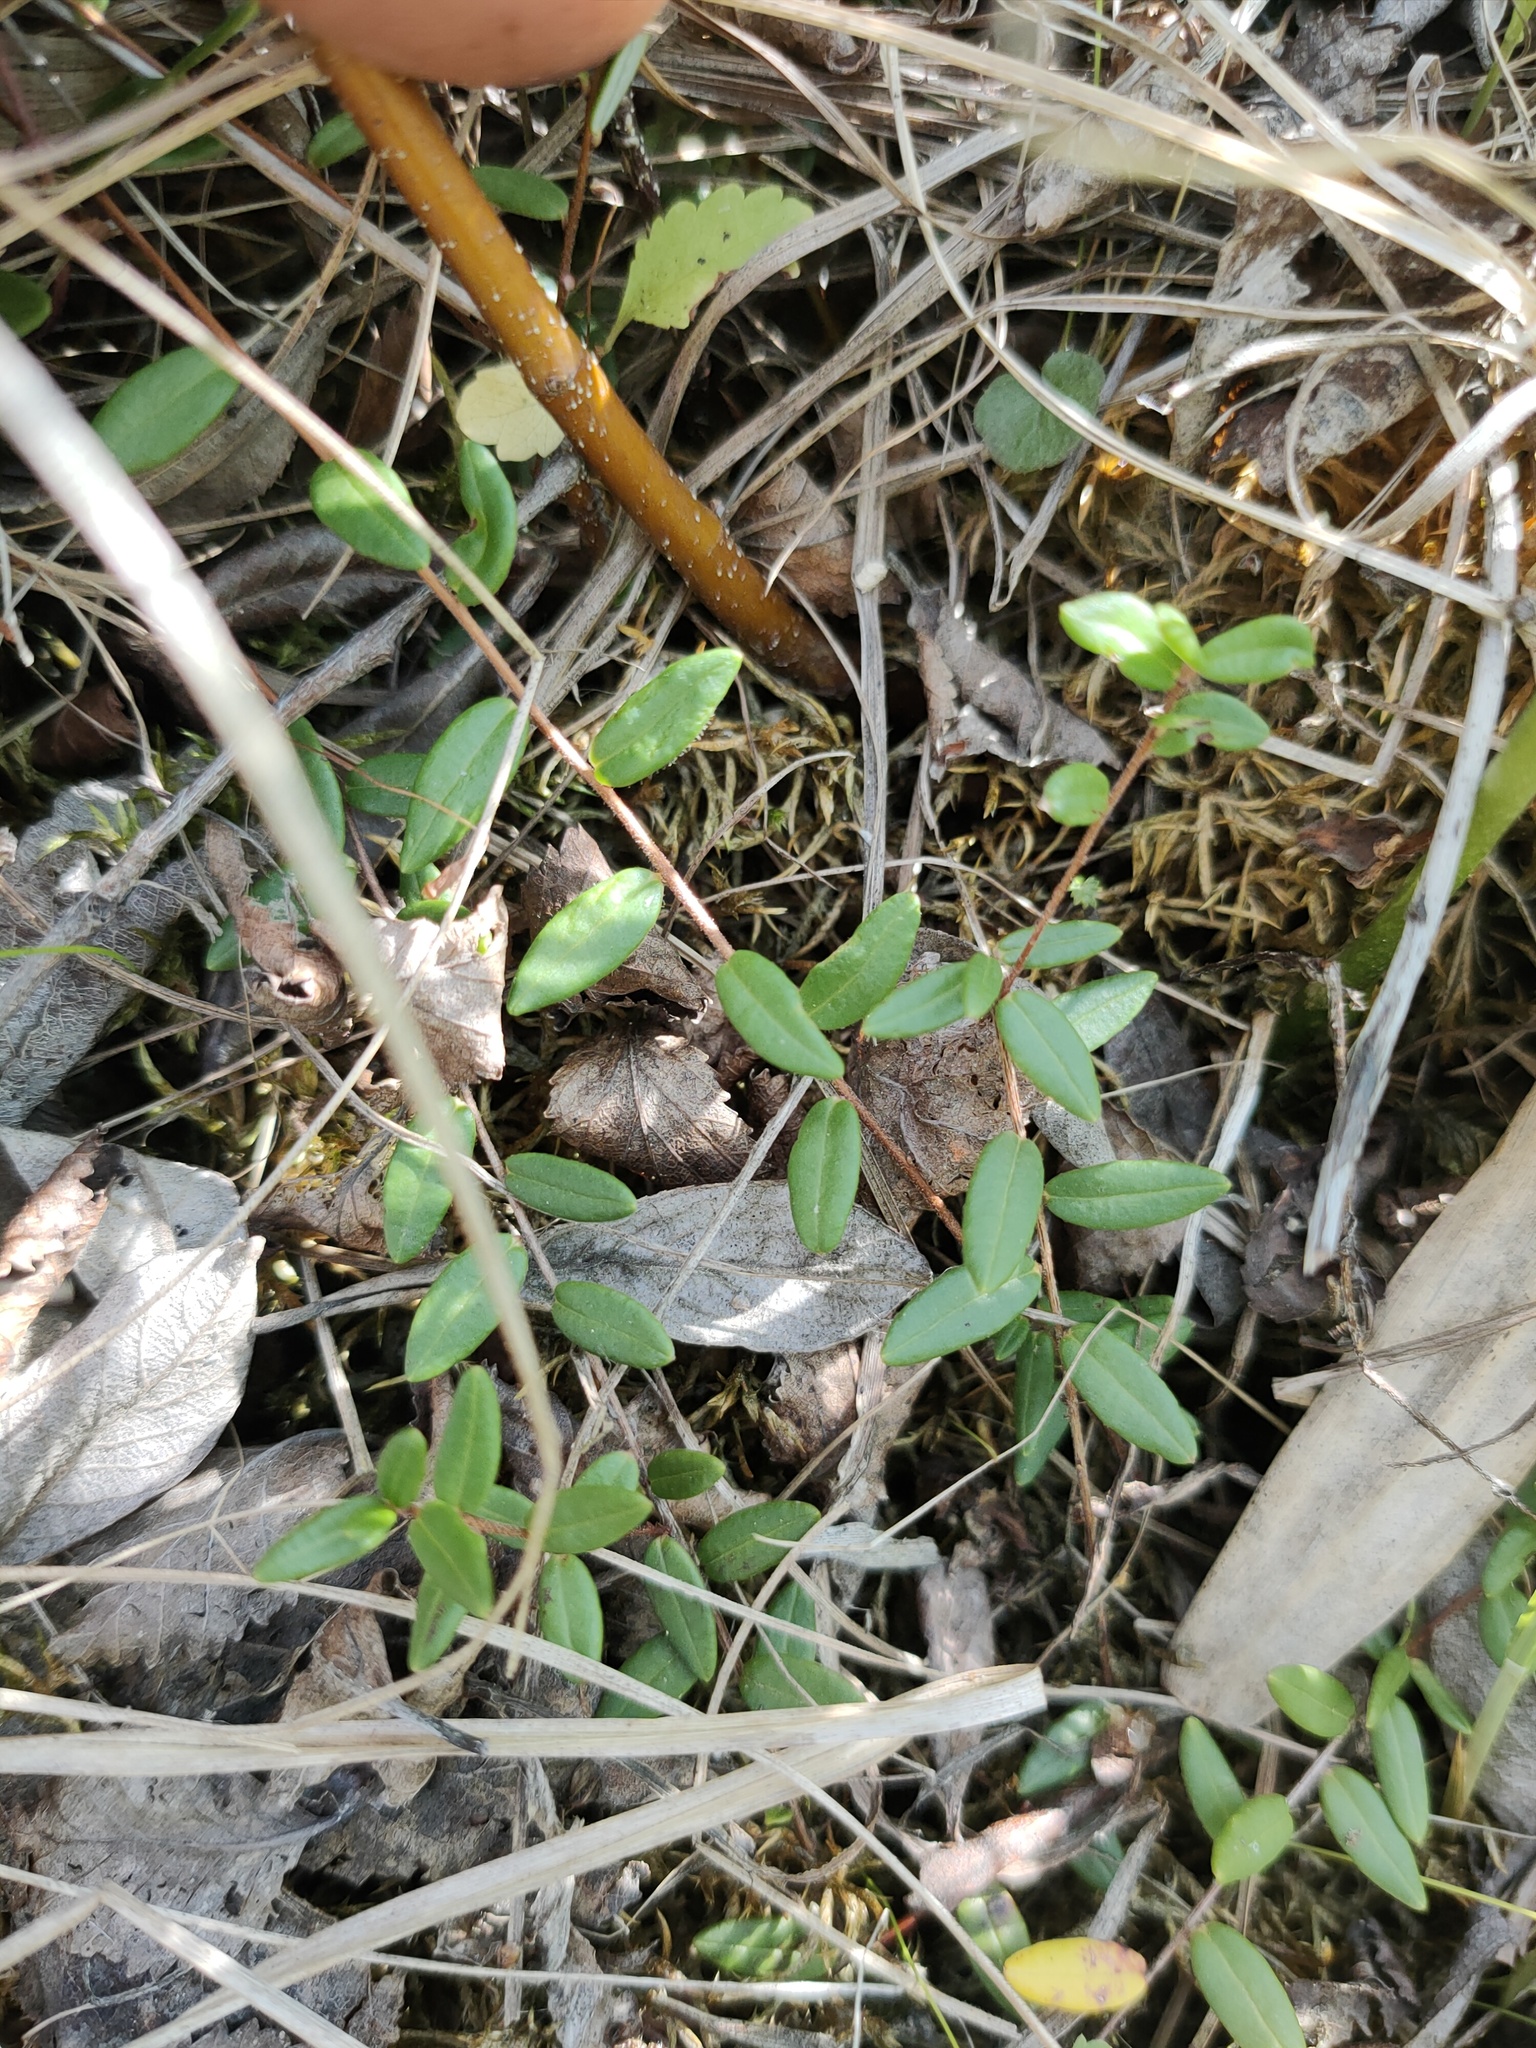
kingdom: Plantae
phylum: Tracheophyta
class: Magnoliopsida
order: Ericales
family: Ericaceae
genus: Vaccinium
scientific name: Vaccinium oxycoccos
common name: Cranberry
